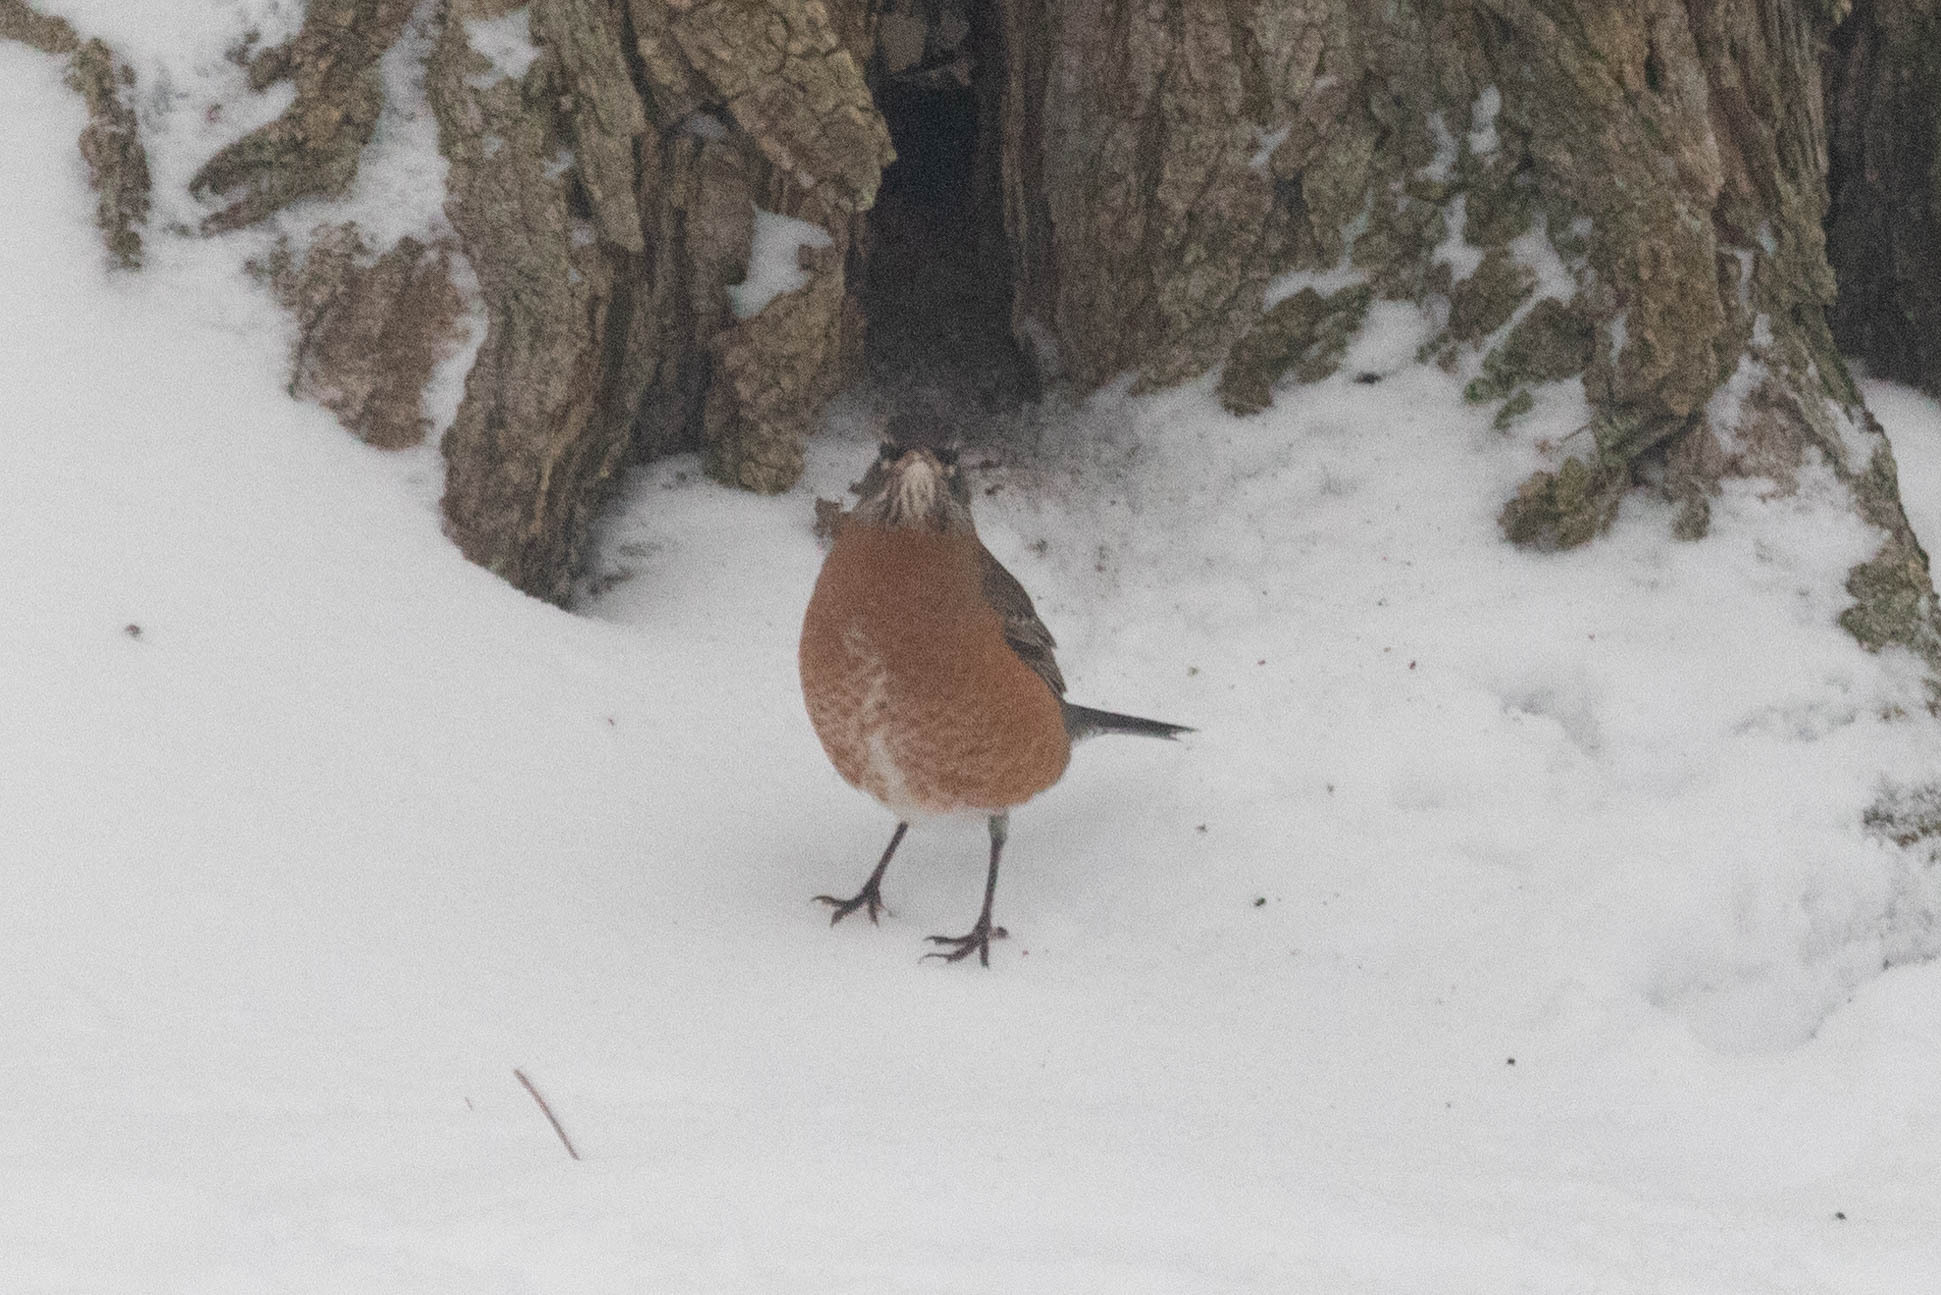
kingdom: Animalia
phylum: Chordata
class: Aves
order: Passeriformes
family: Turdidae
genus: Turdus
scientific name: Turdus migratorius
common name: American robin
